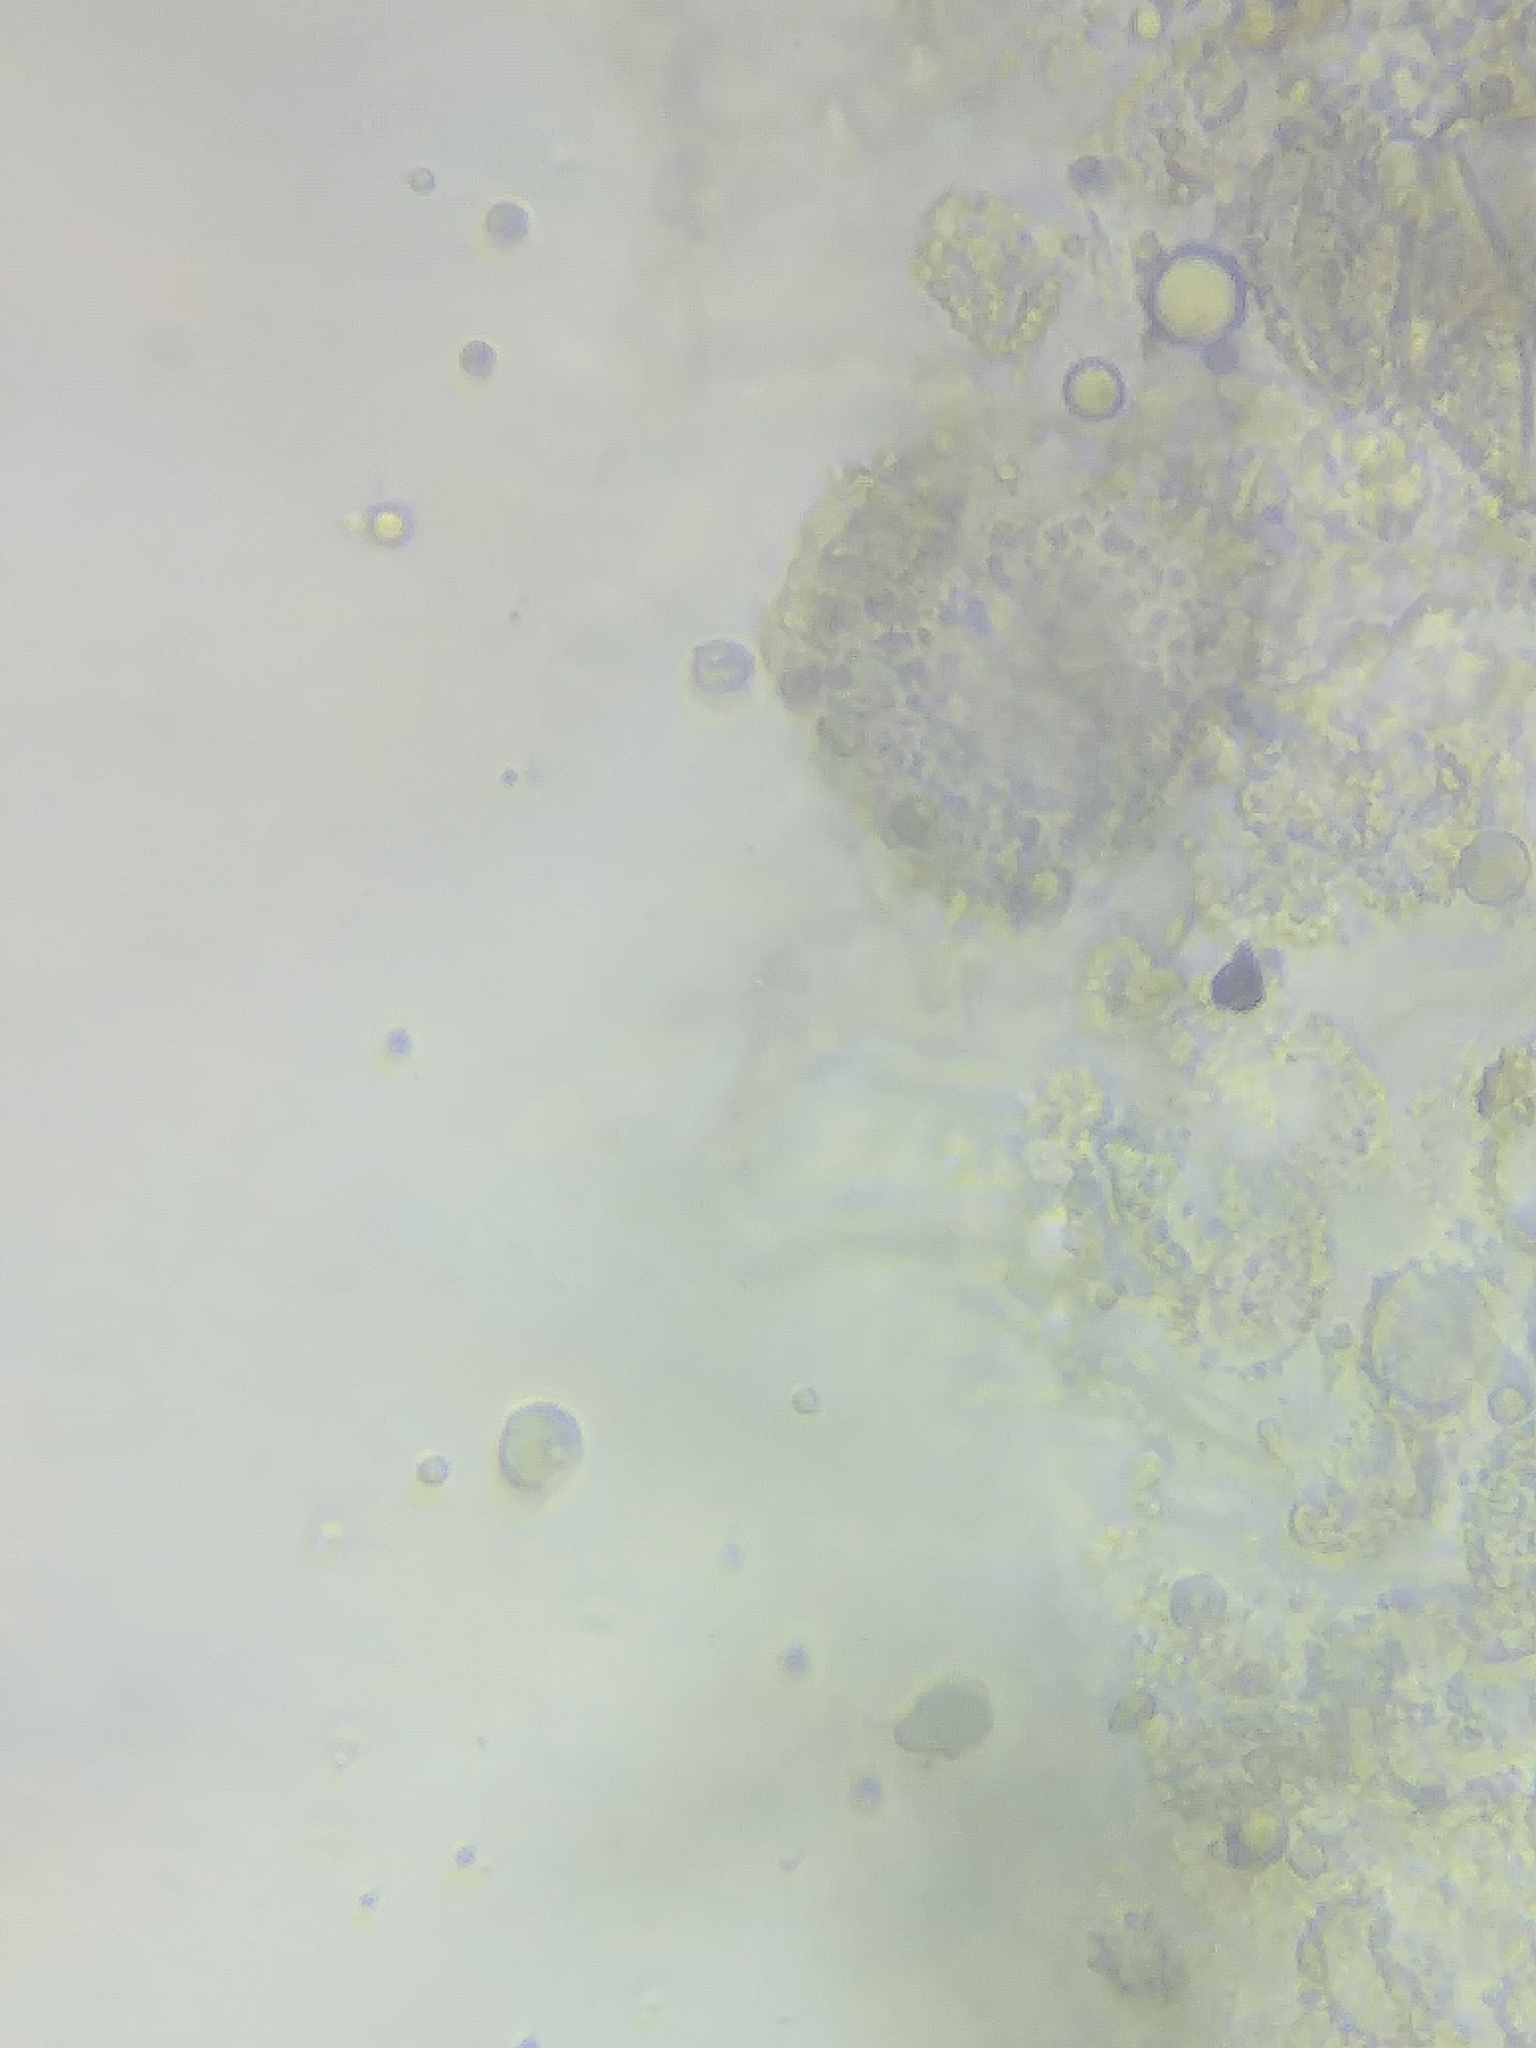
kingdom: Fungi
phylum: Basidiomycota
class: Agaricomycetes
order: Agaricales
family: Mycenaceae
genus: Mycena
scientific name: Mycena alphitophora
